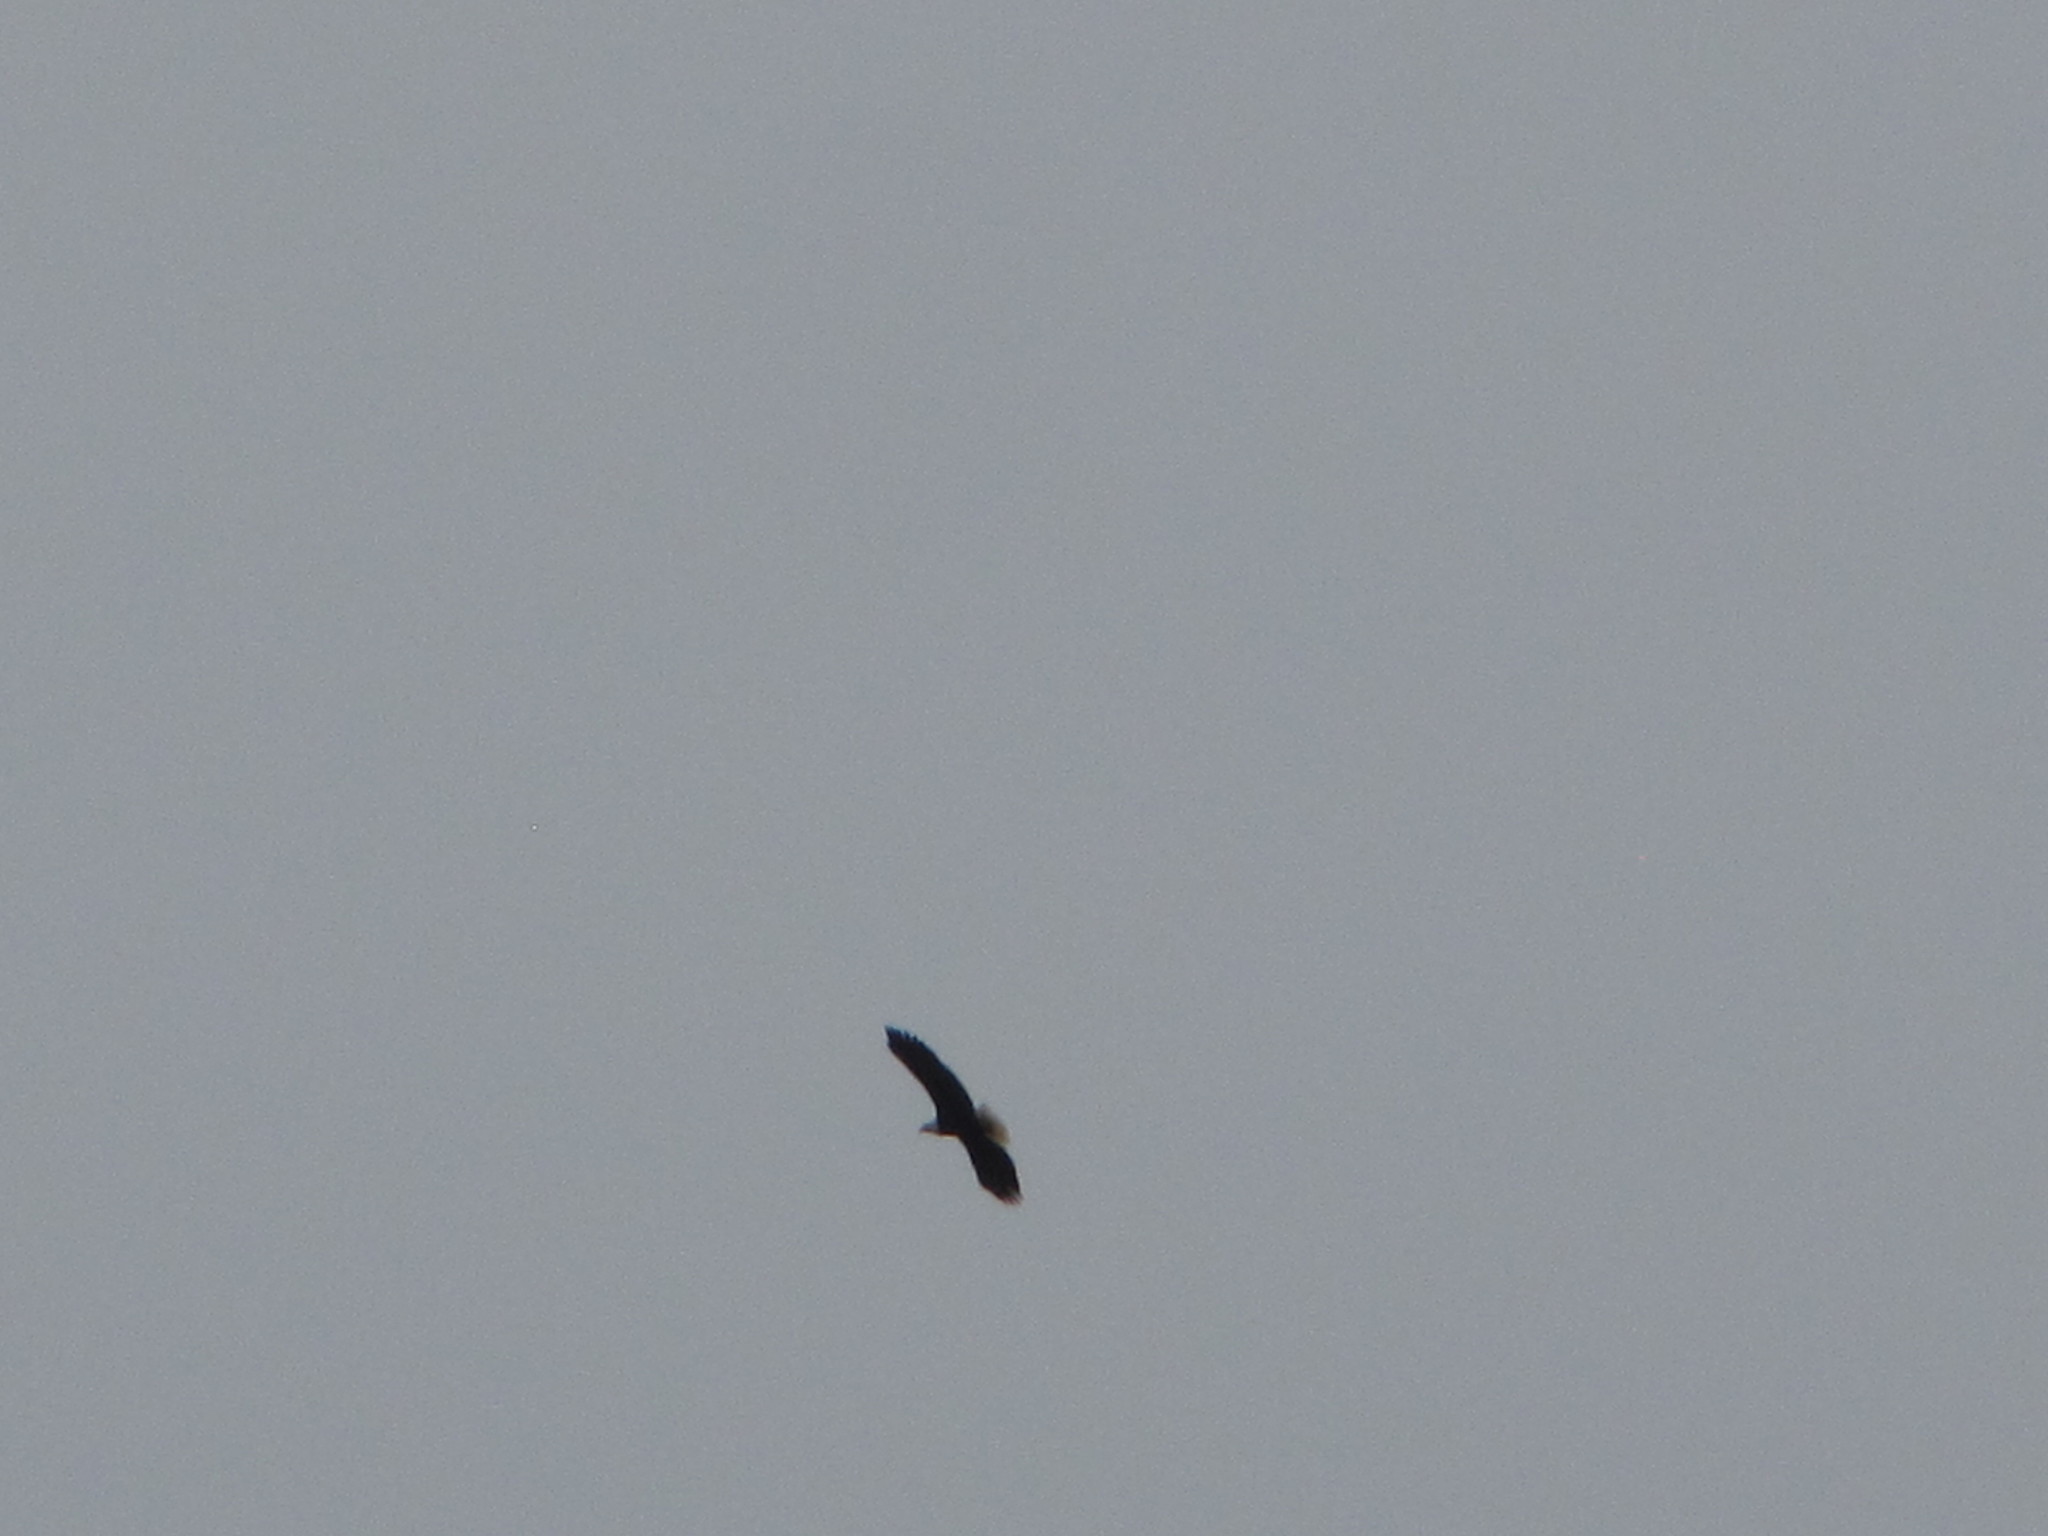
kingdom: Animalia
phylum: Chordata
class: Aves
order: Accipitriformes
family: Accipitridae
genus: Haliaeetus
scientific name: Haliaeetus leucocephalus
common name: Bald eagle
